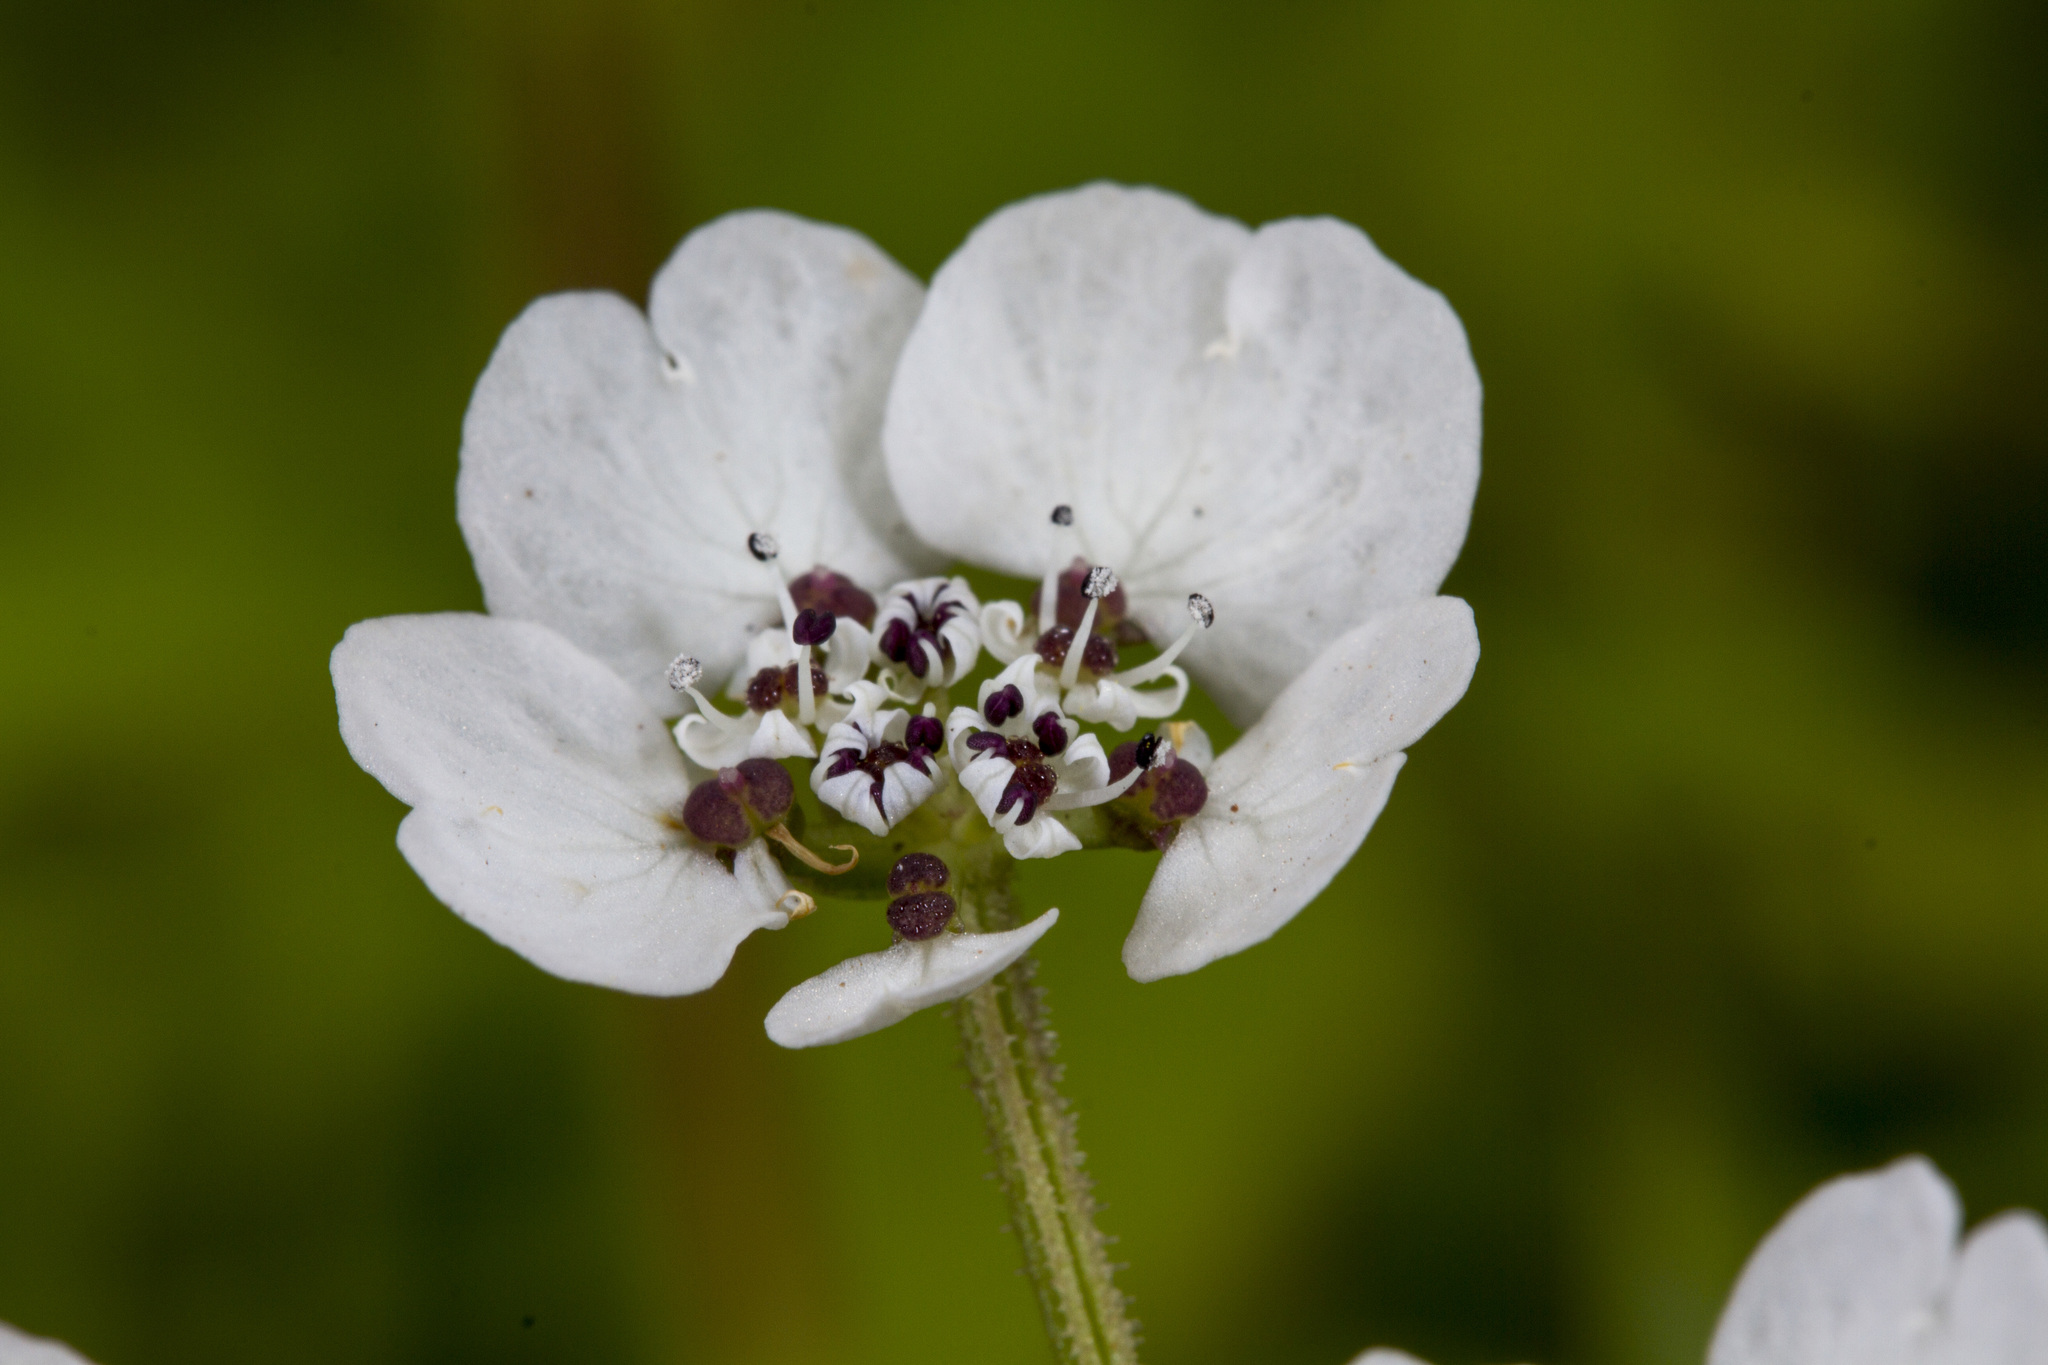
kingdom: Plantae
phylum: Tracheophyta
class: Magnoliopsida
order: Apiales
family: Apiaceae
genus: Pinda
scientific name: Pinda concanensis
